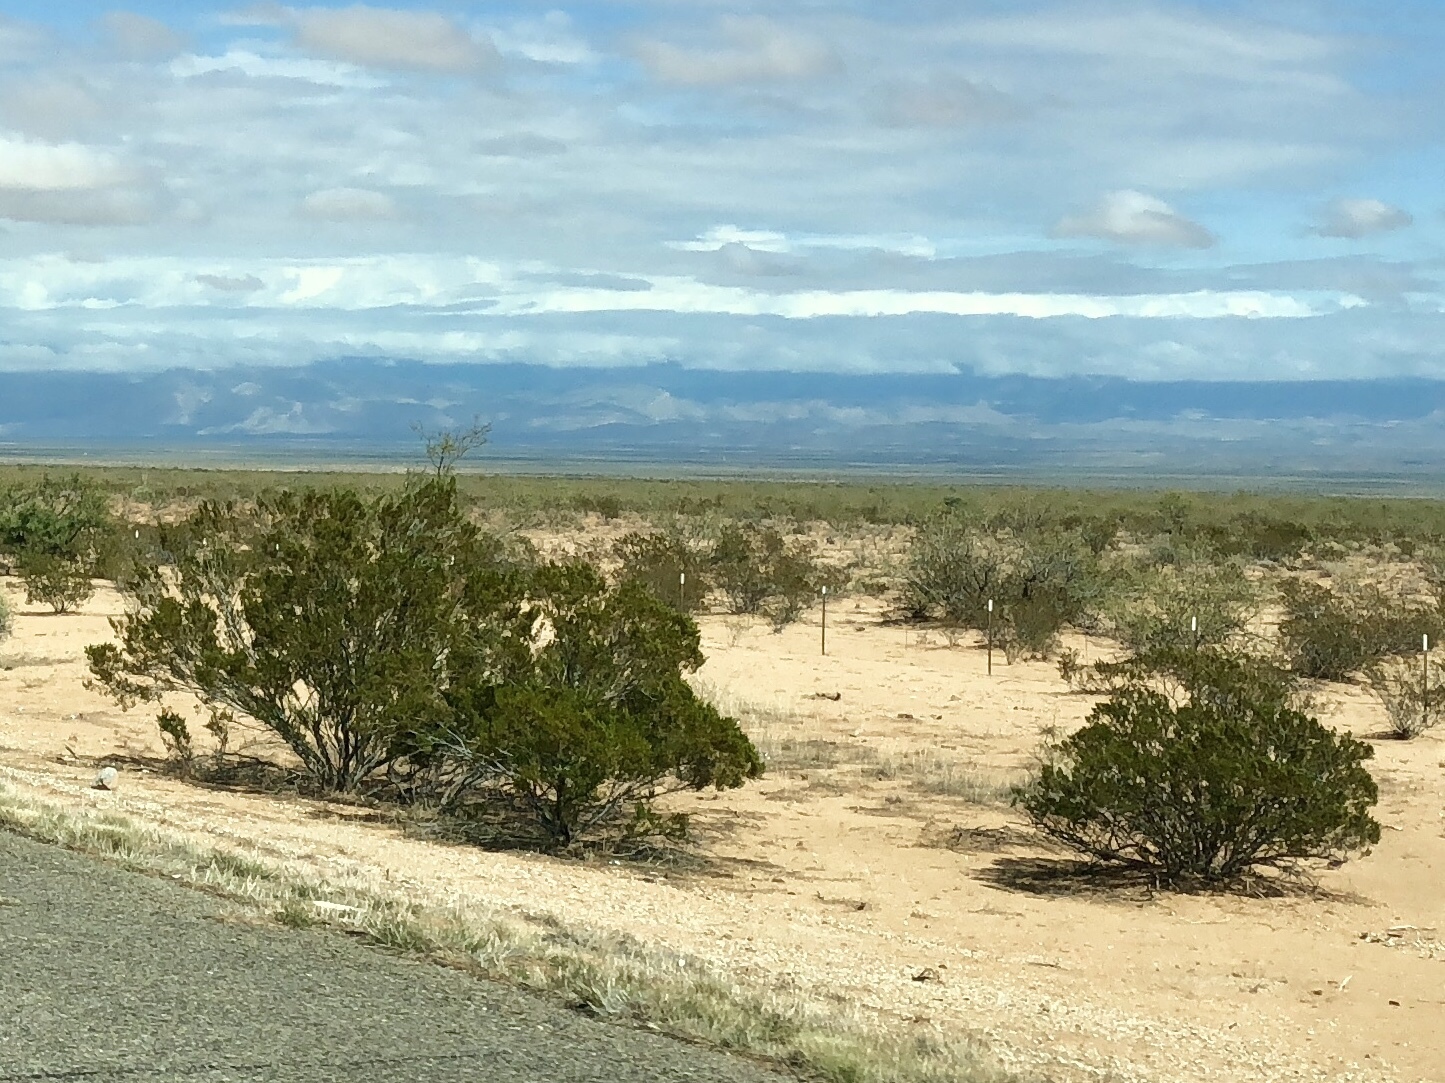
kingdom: Plantae
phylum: Tracheophyta
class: Magnoliopsida
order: Zygophyllales
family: Zygophyllaceae
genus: Larrea
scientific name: Larrea tridentata
